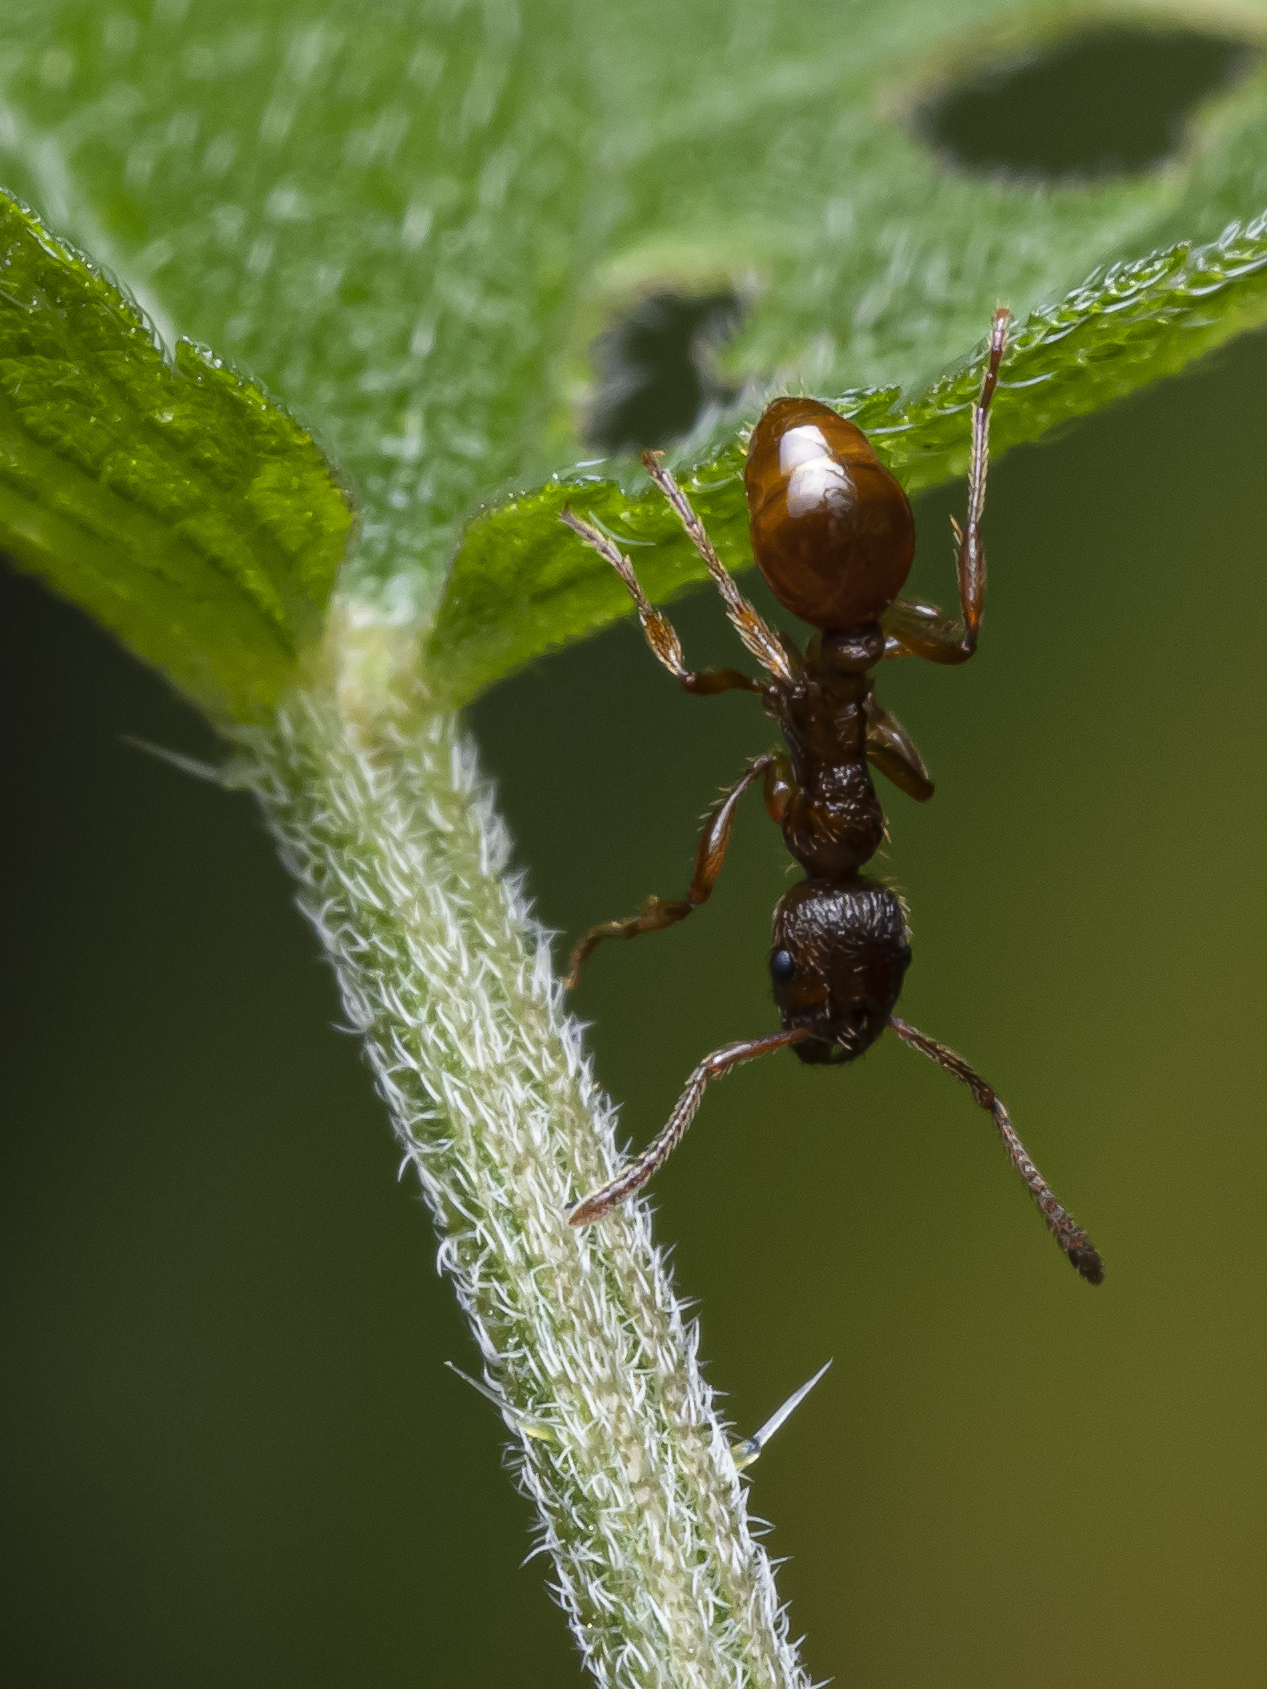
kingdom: Animalia
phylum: Arthropoda
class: Insecta
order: Hymenoptera
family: Formicidae
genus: Myrmica
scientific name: Myrmica rubra
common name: European fire ant
